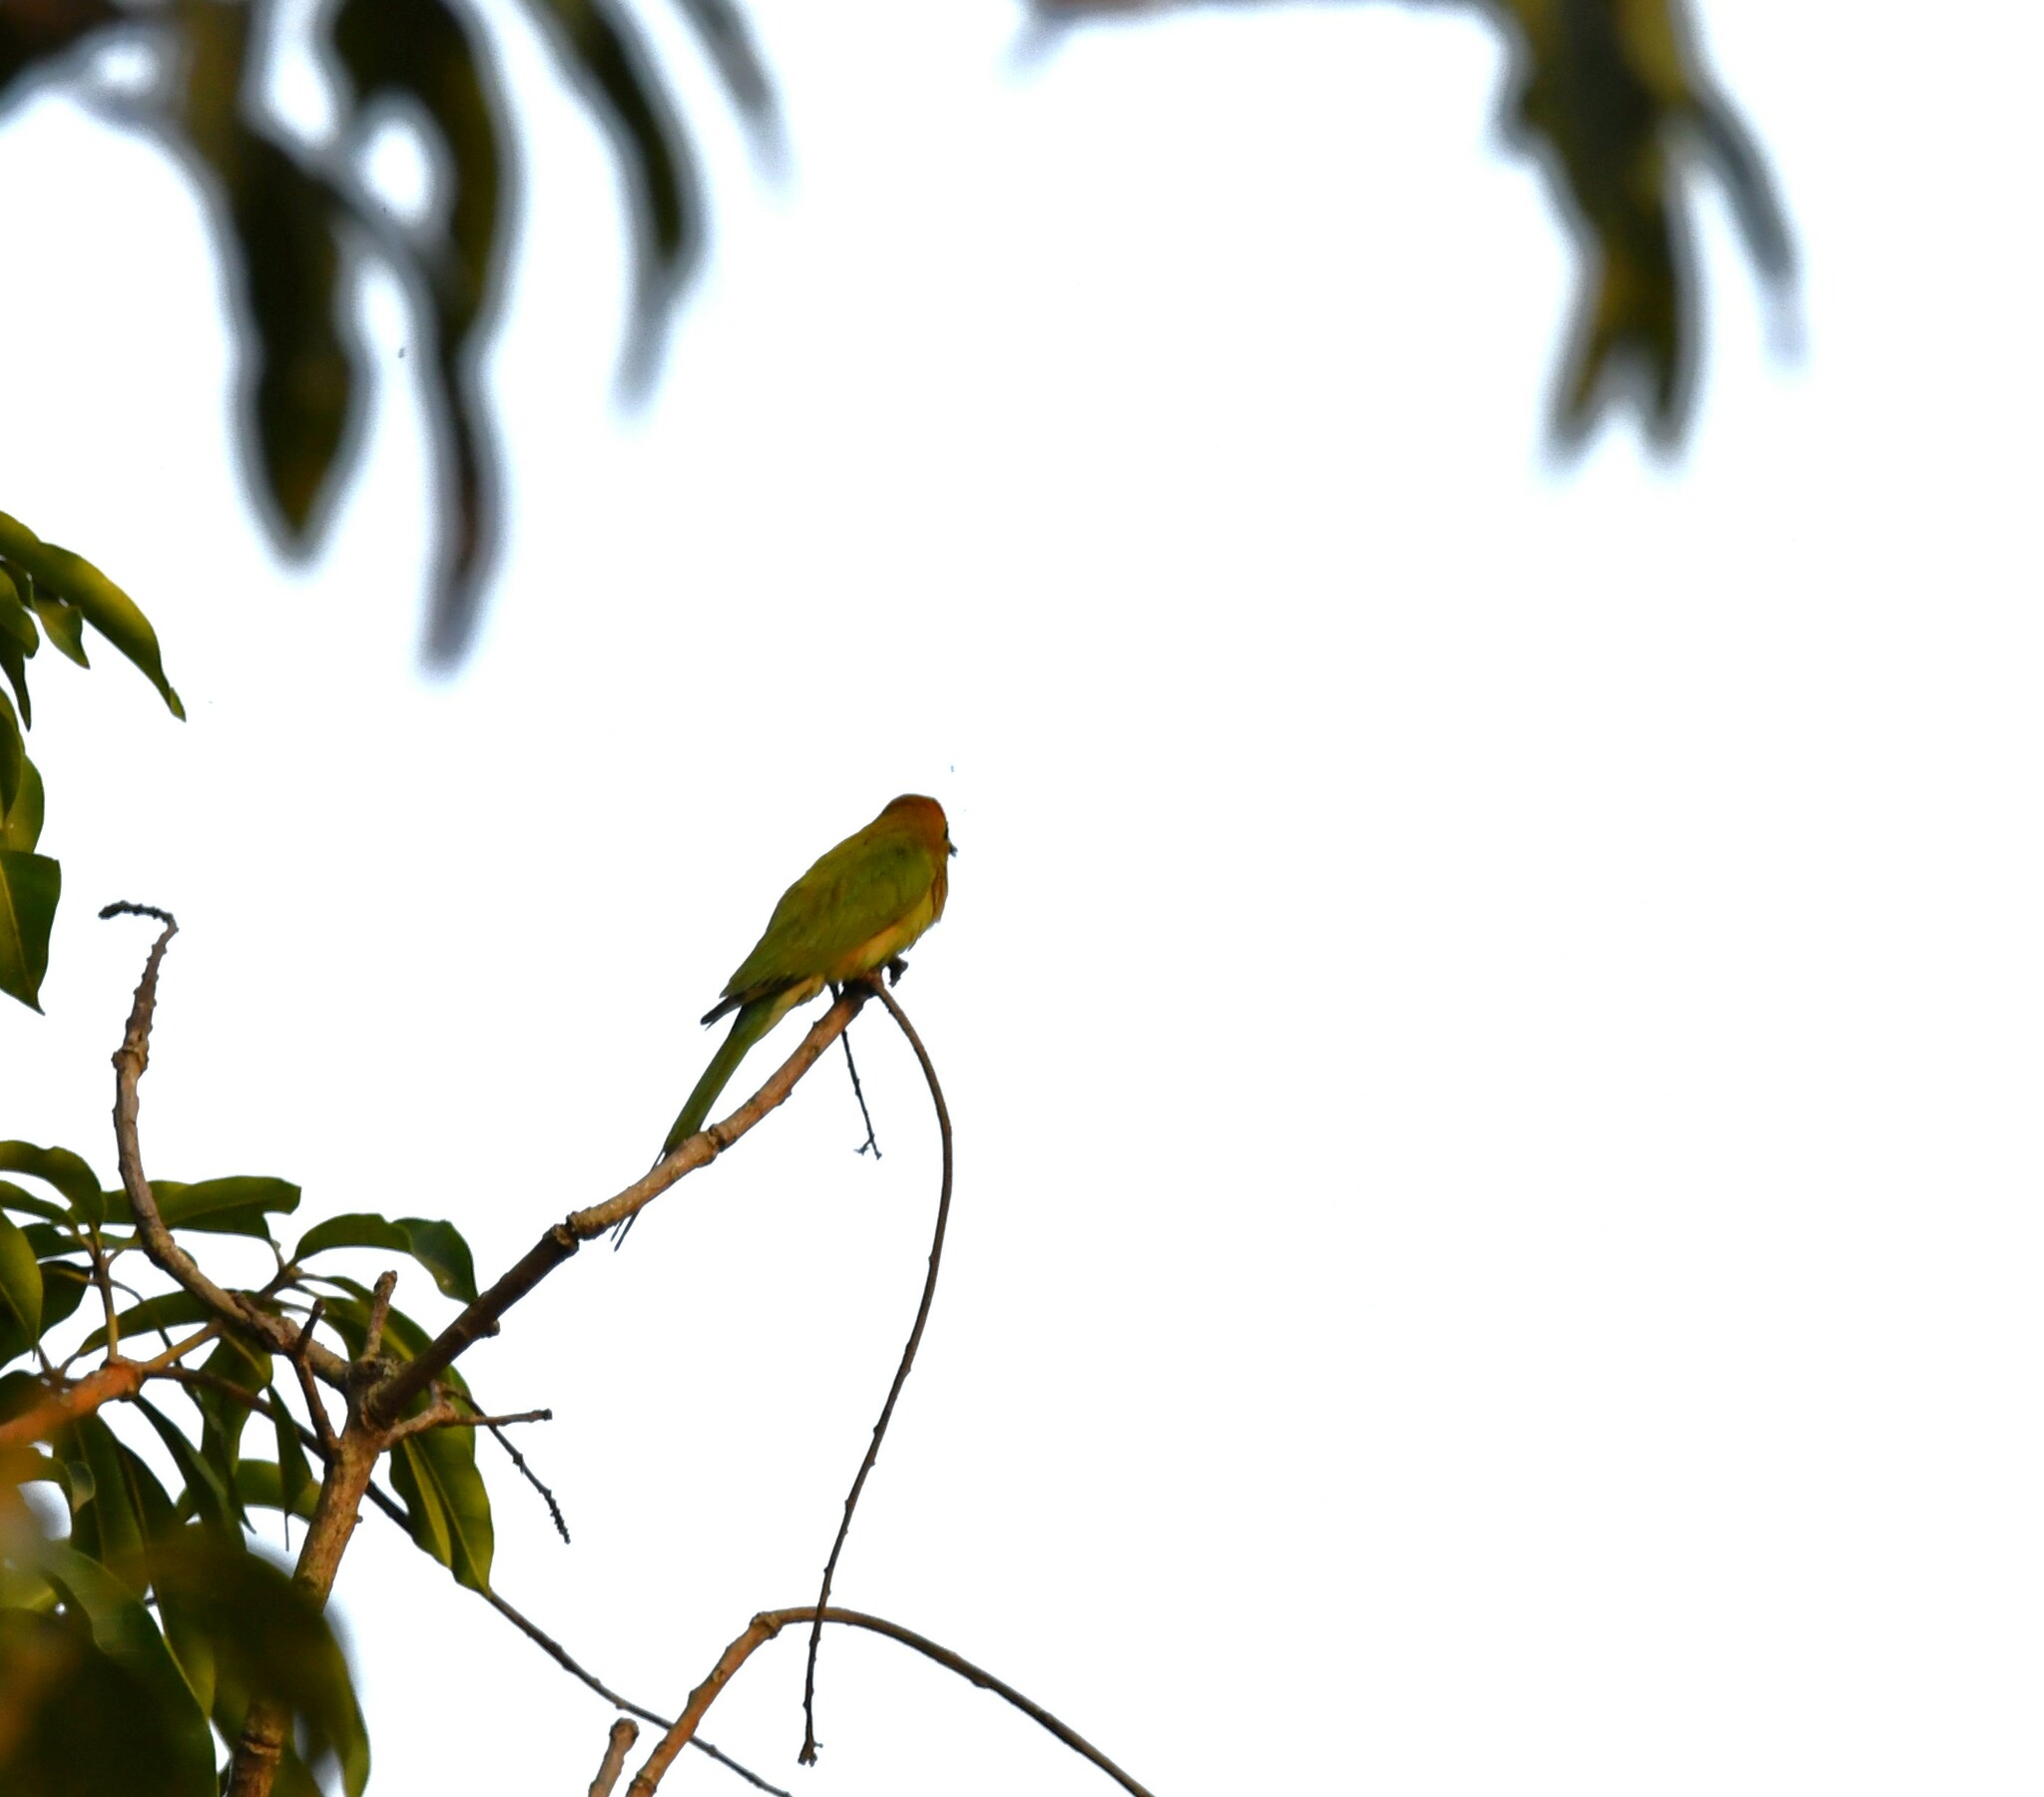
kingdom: Animalia
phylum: Chordata
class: Aves
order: Coraciiformes
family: Meropidae
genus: Merops
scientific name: Merops orientalis
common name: Green bee-eater
